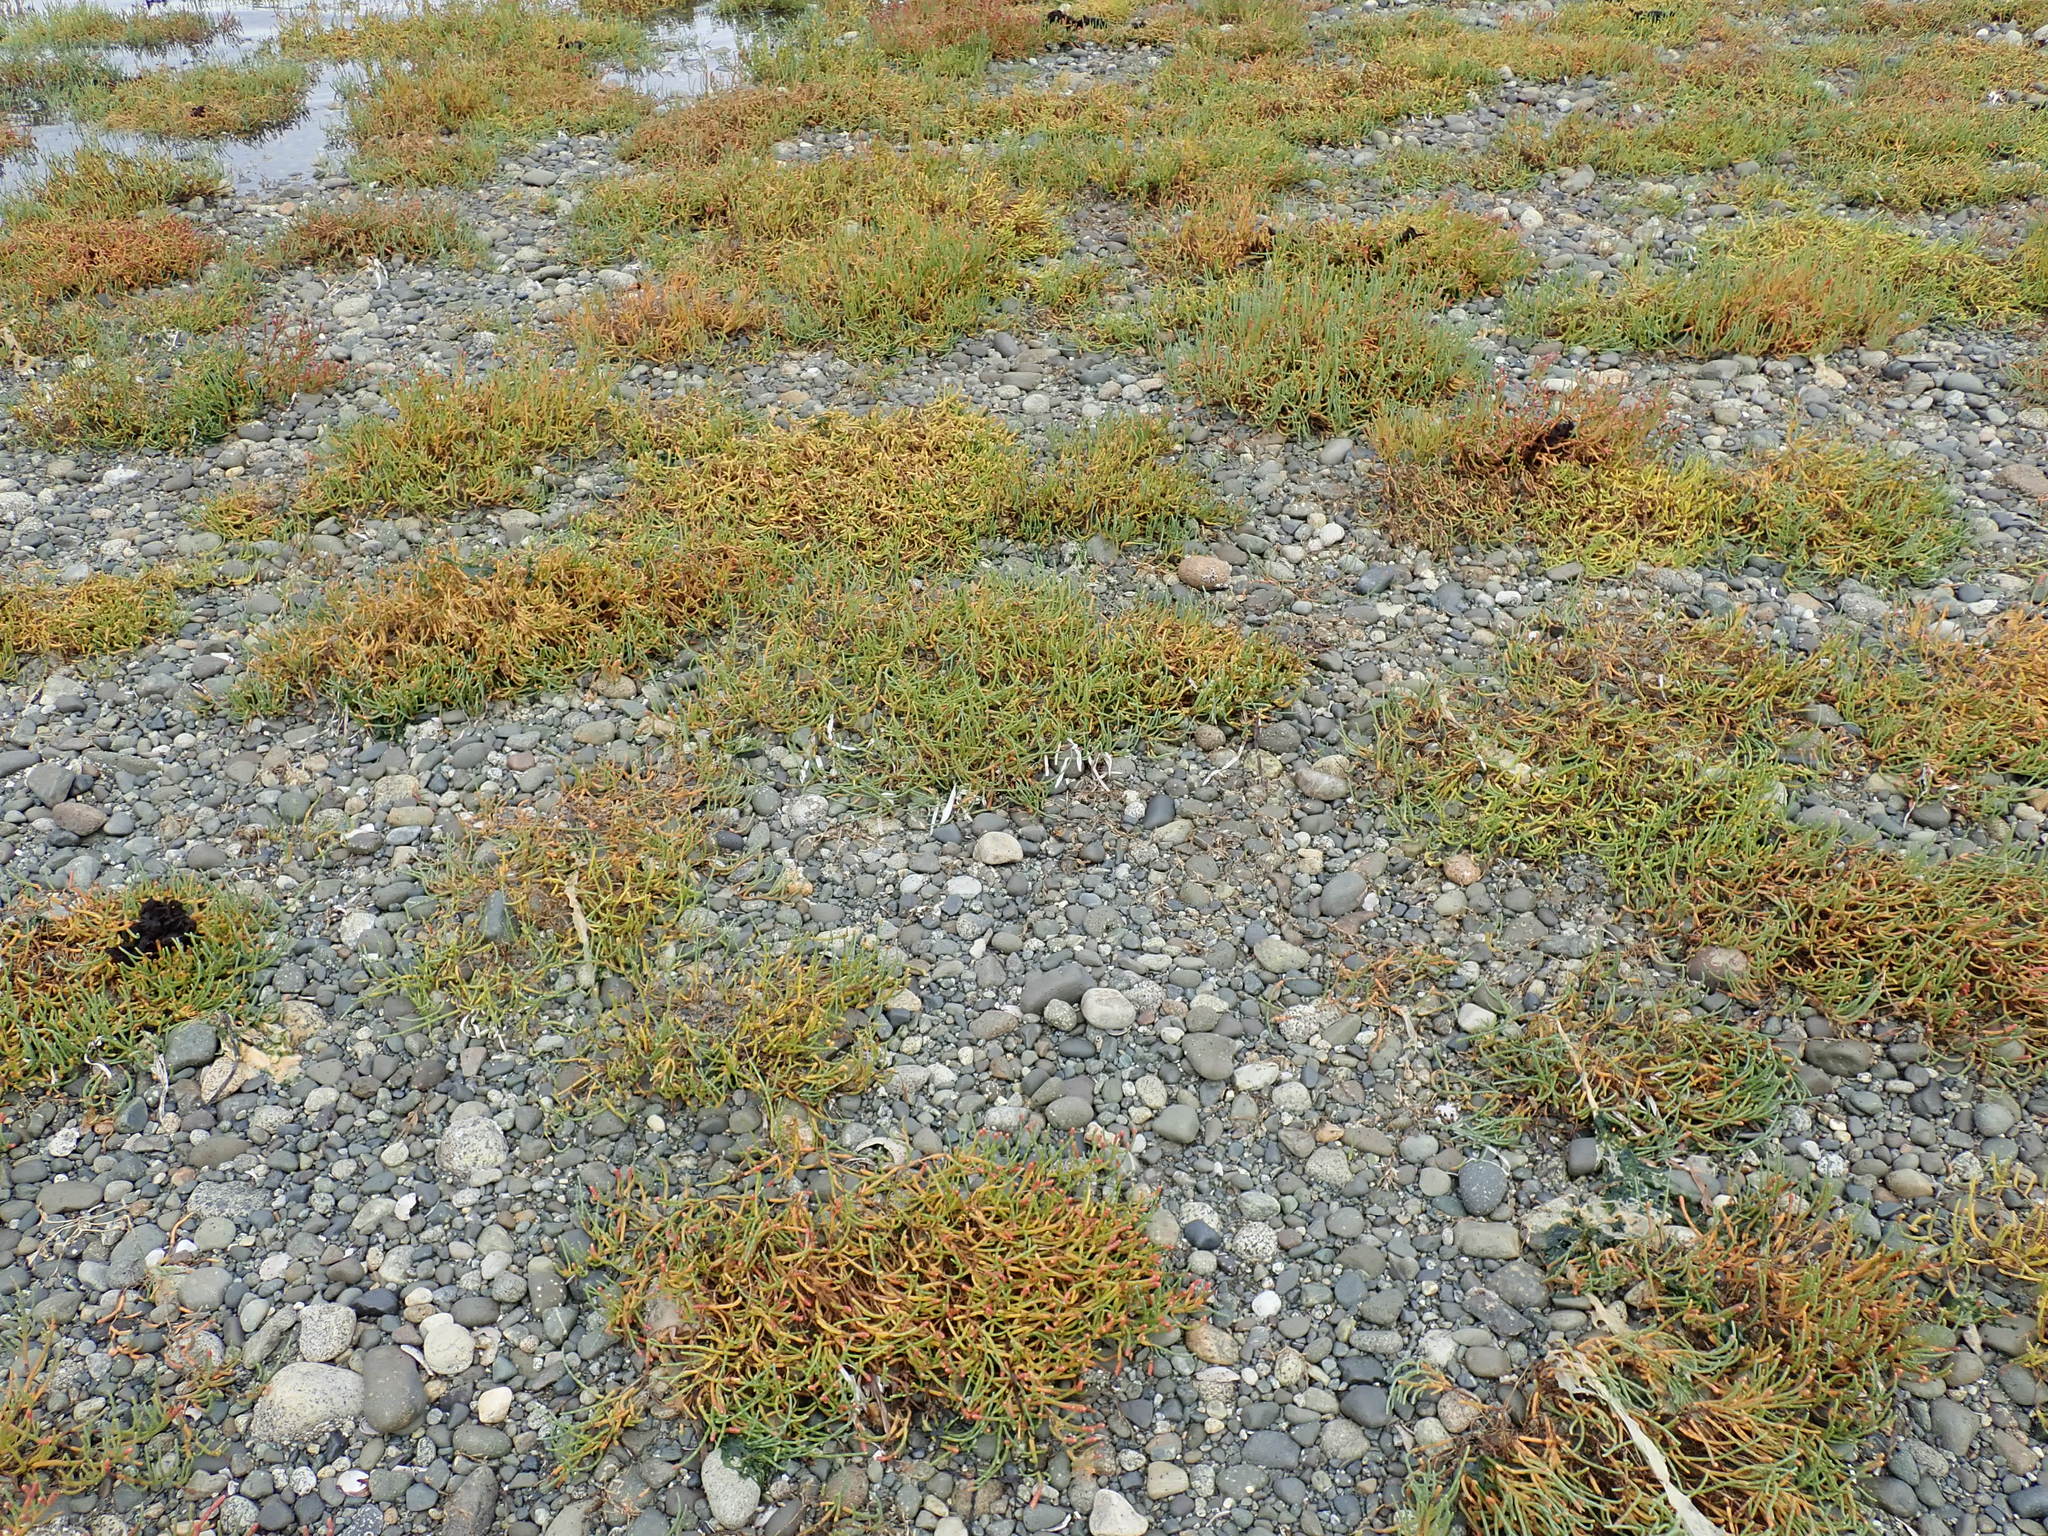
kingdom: Plantae
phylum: Tracheophyta
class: Magnoliopsida
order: Caryophyllales
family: Amaranthaceae
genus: Salicornia
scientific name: Salicornia pacifica
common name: Pacific glasswort
